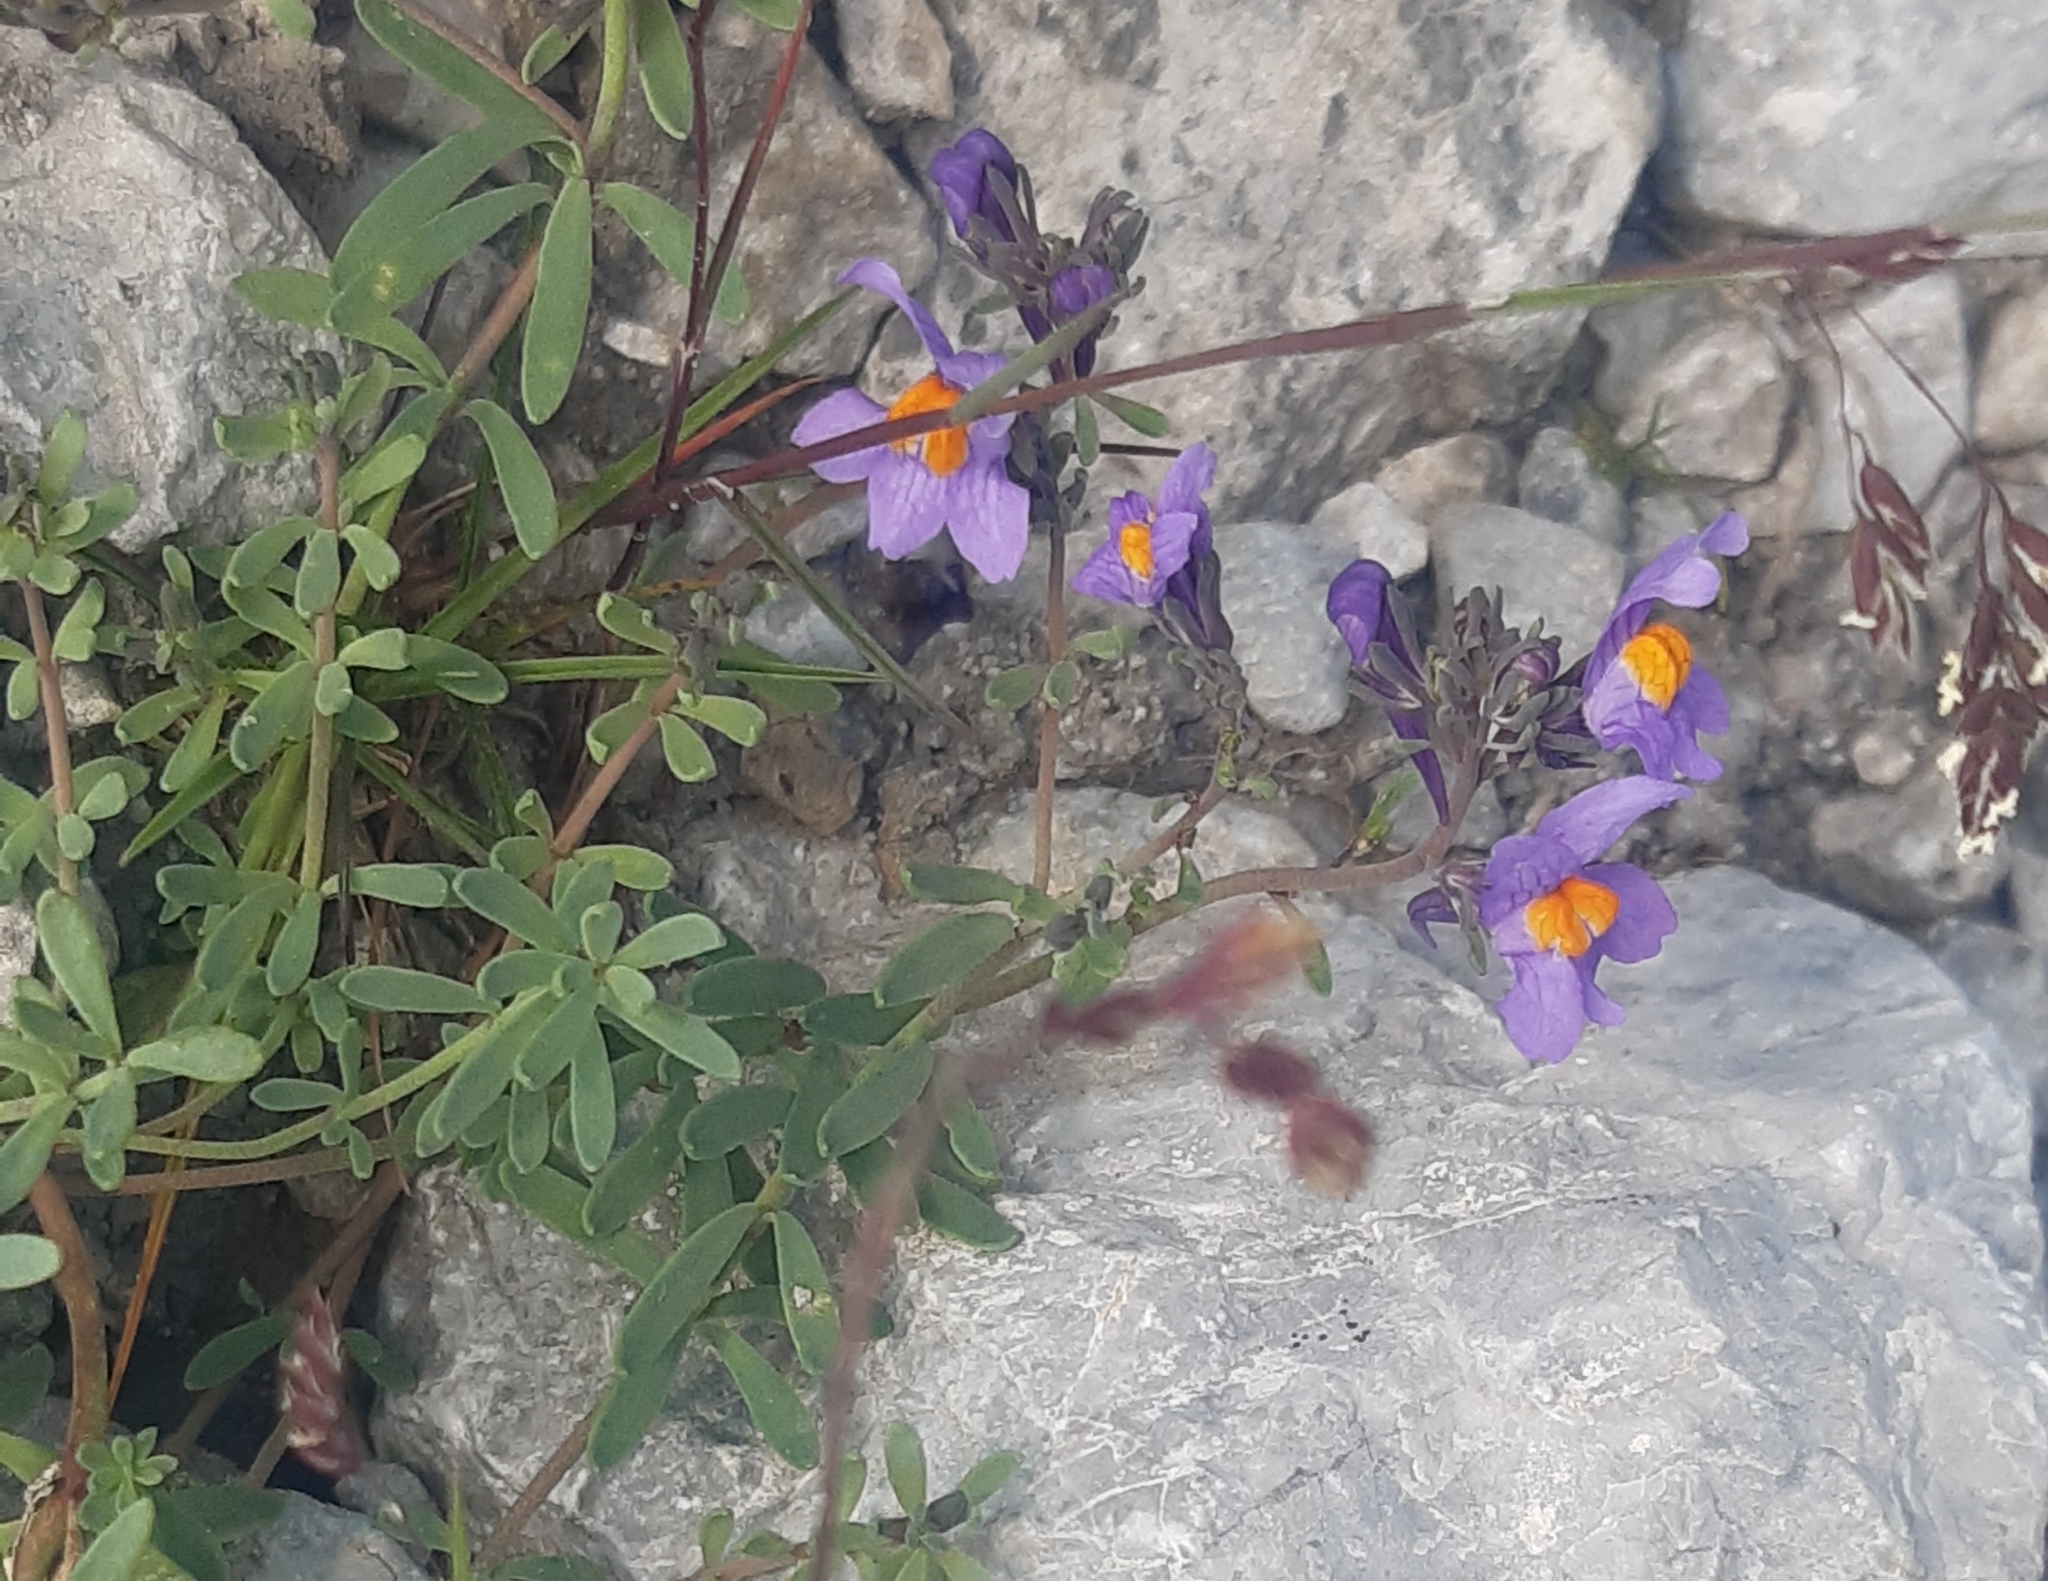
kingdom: Plantae
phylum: Tracheophyta
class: Magnoliopsida
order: Lamiales
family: Plantaginaceae
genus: Linaria
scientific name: Linaria alpina
